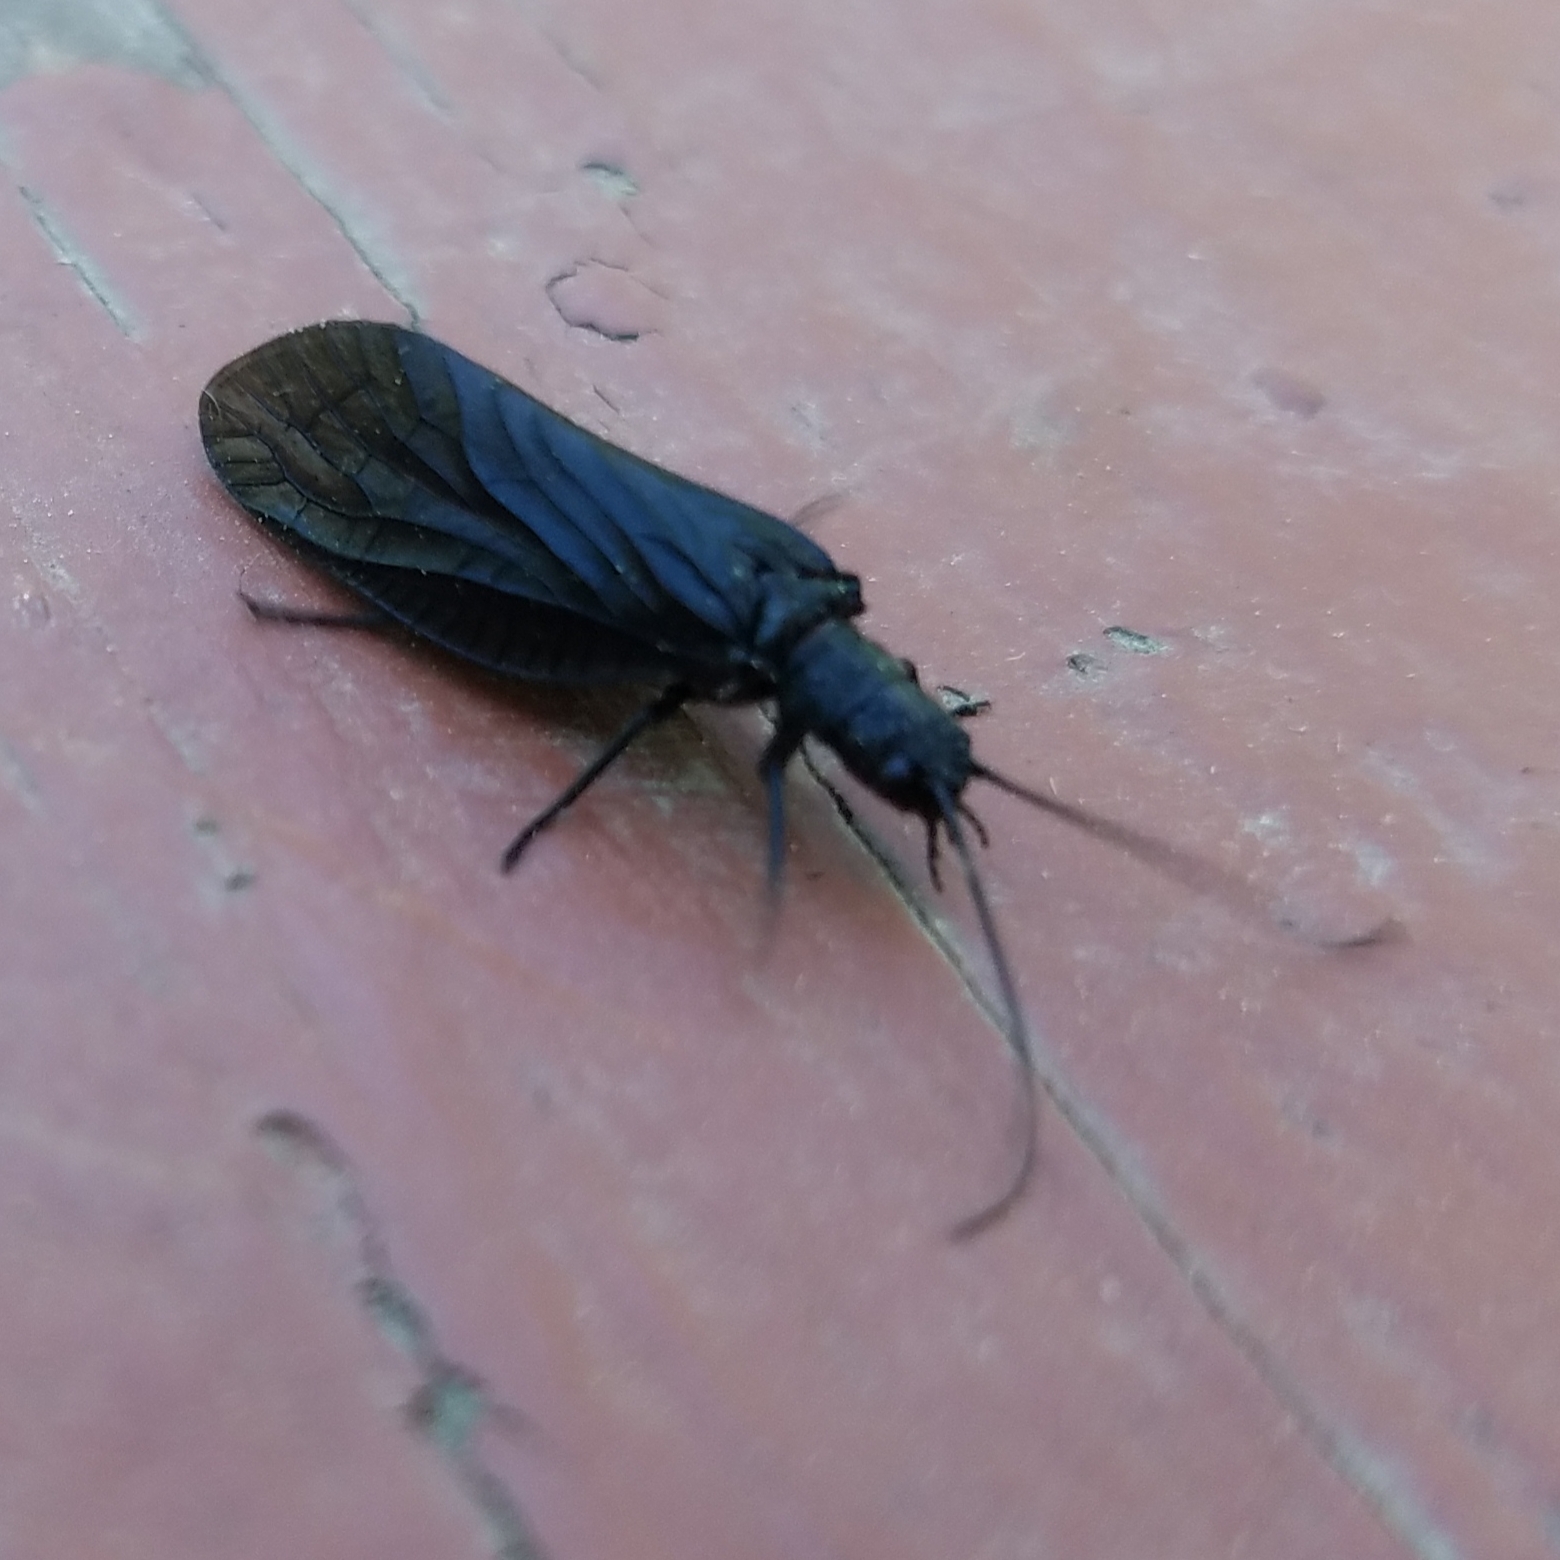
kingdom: Animalia
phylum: Arthropoda
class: Insecta
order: Megaloptera
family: Sialidae
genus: Sialis
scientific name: Sialis
